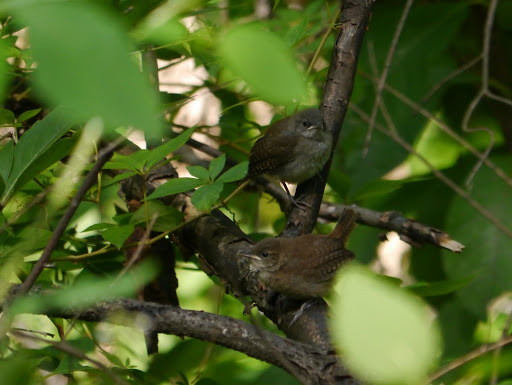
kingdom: Animalia
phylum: Chordata
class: Aves
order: Passeriformes
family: Troglodytidae
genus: Troglodytes
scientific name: Troglodytes aedon
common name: House wren
